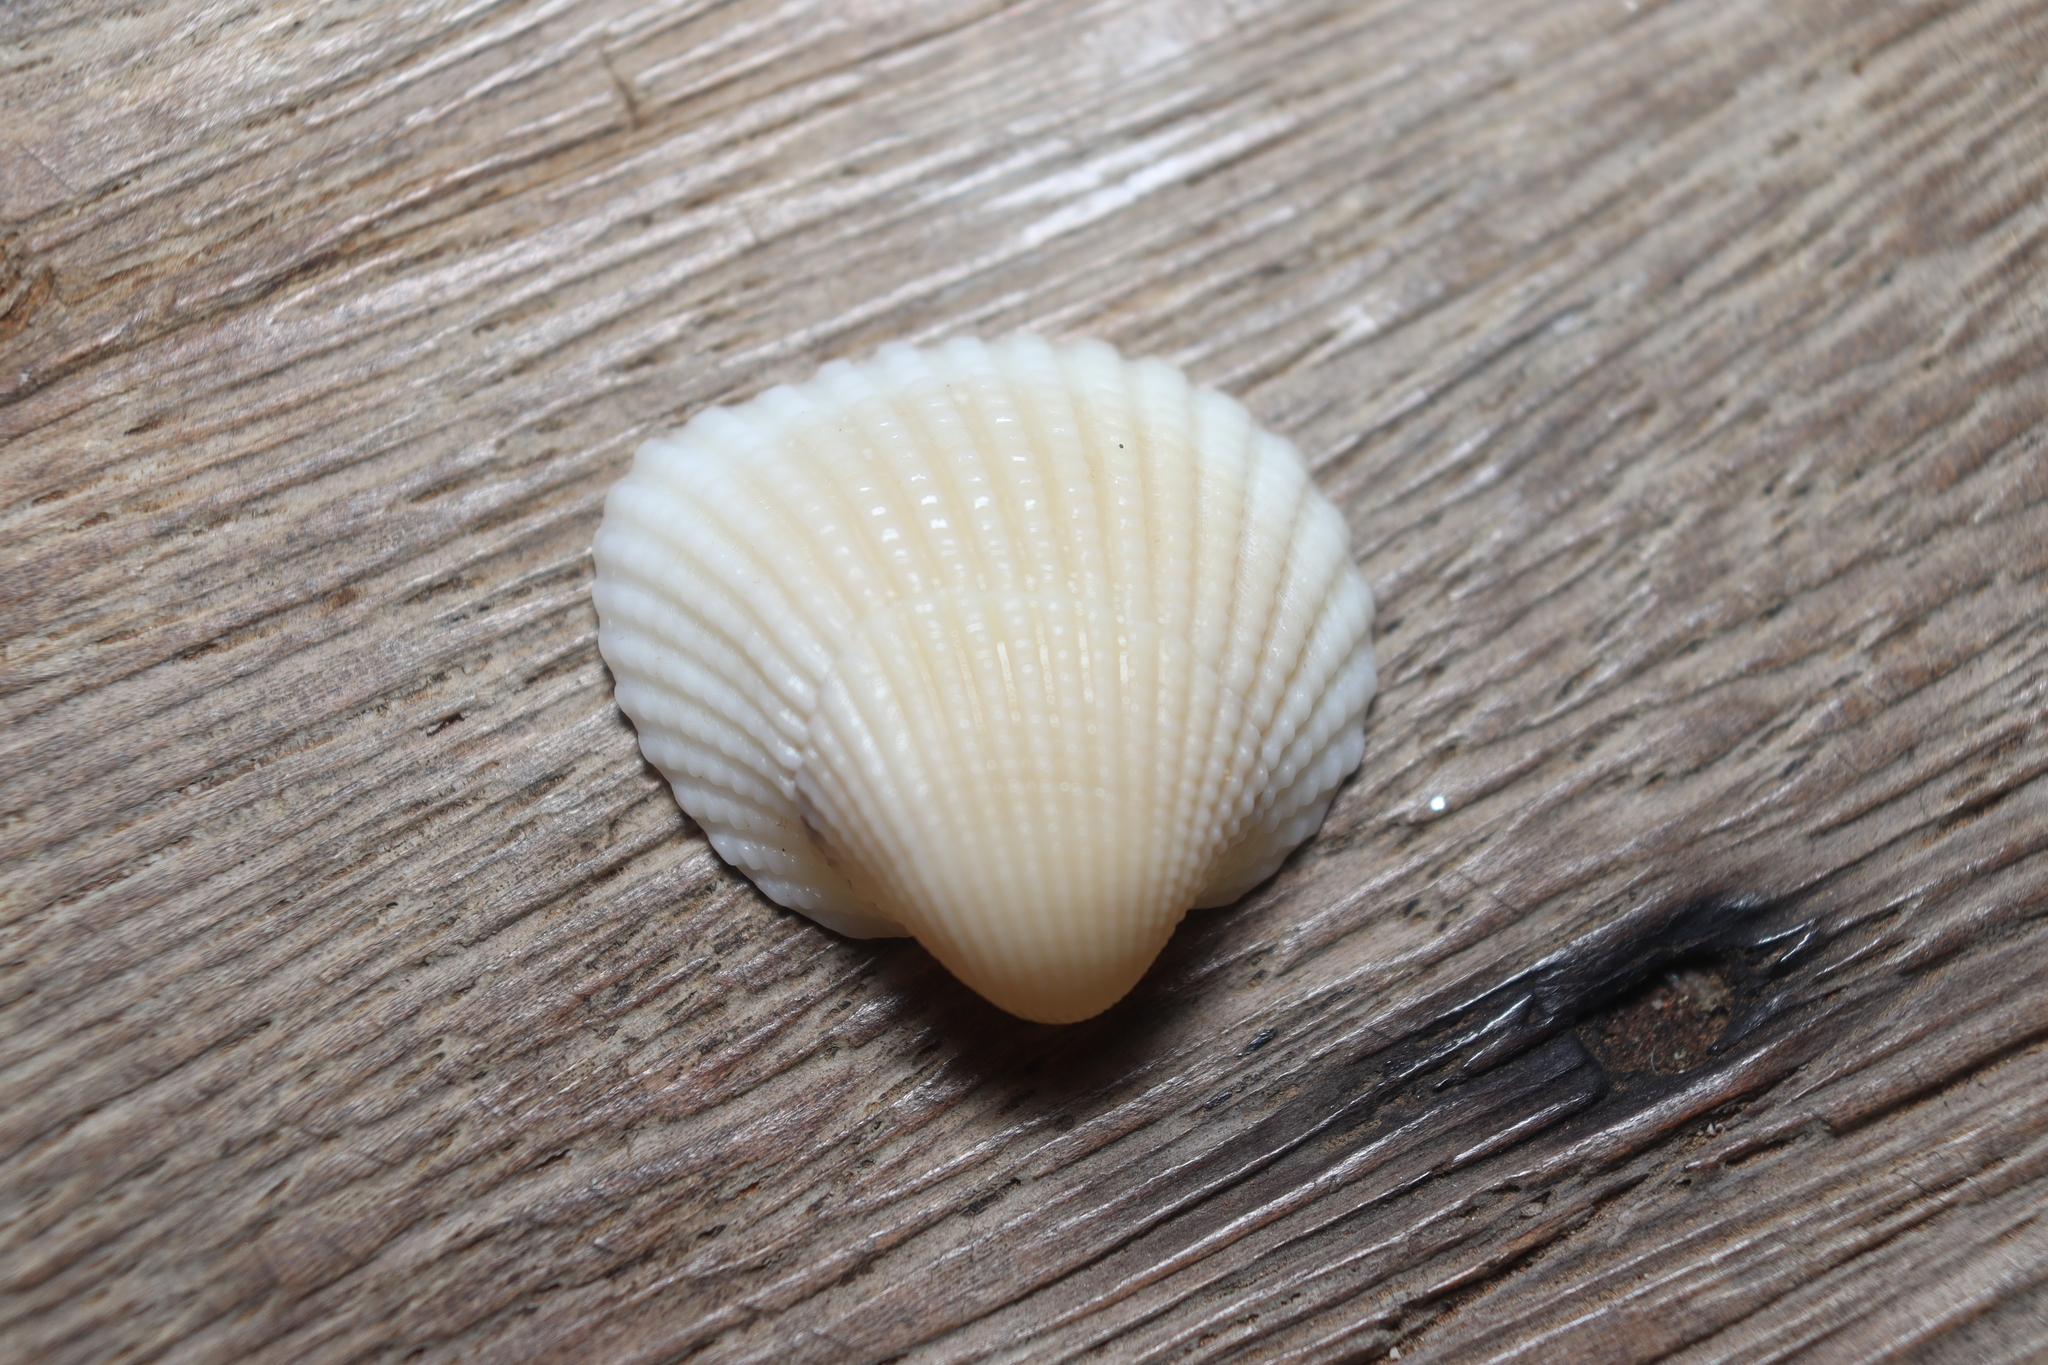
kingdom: Animalia
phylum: Mollusca
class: Bivalvia
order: Arcida
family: Arcidae
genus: Anadara
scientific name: Anadara chemnitzii
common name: Chemnitz's triangular ark
